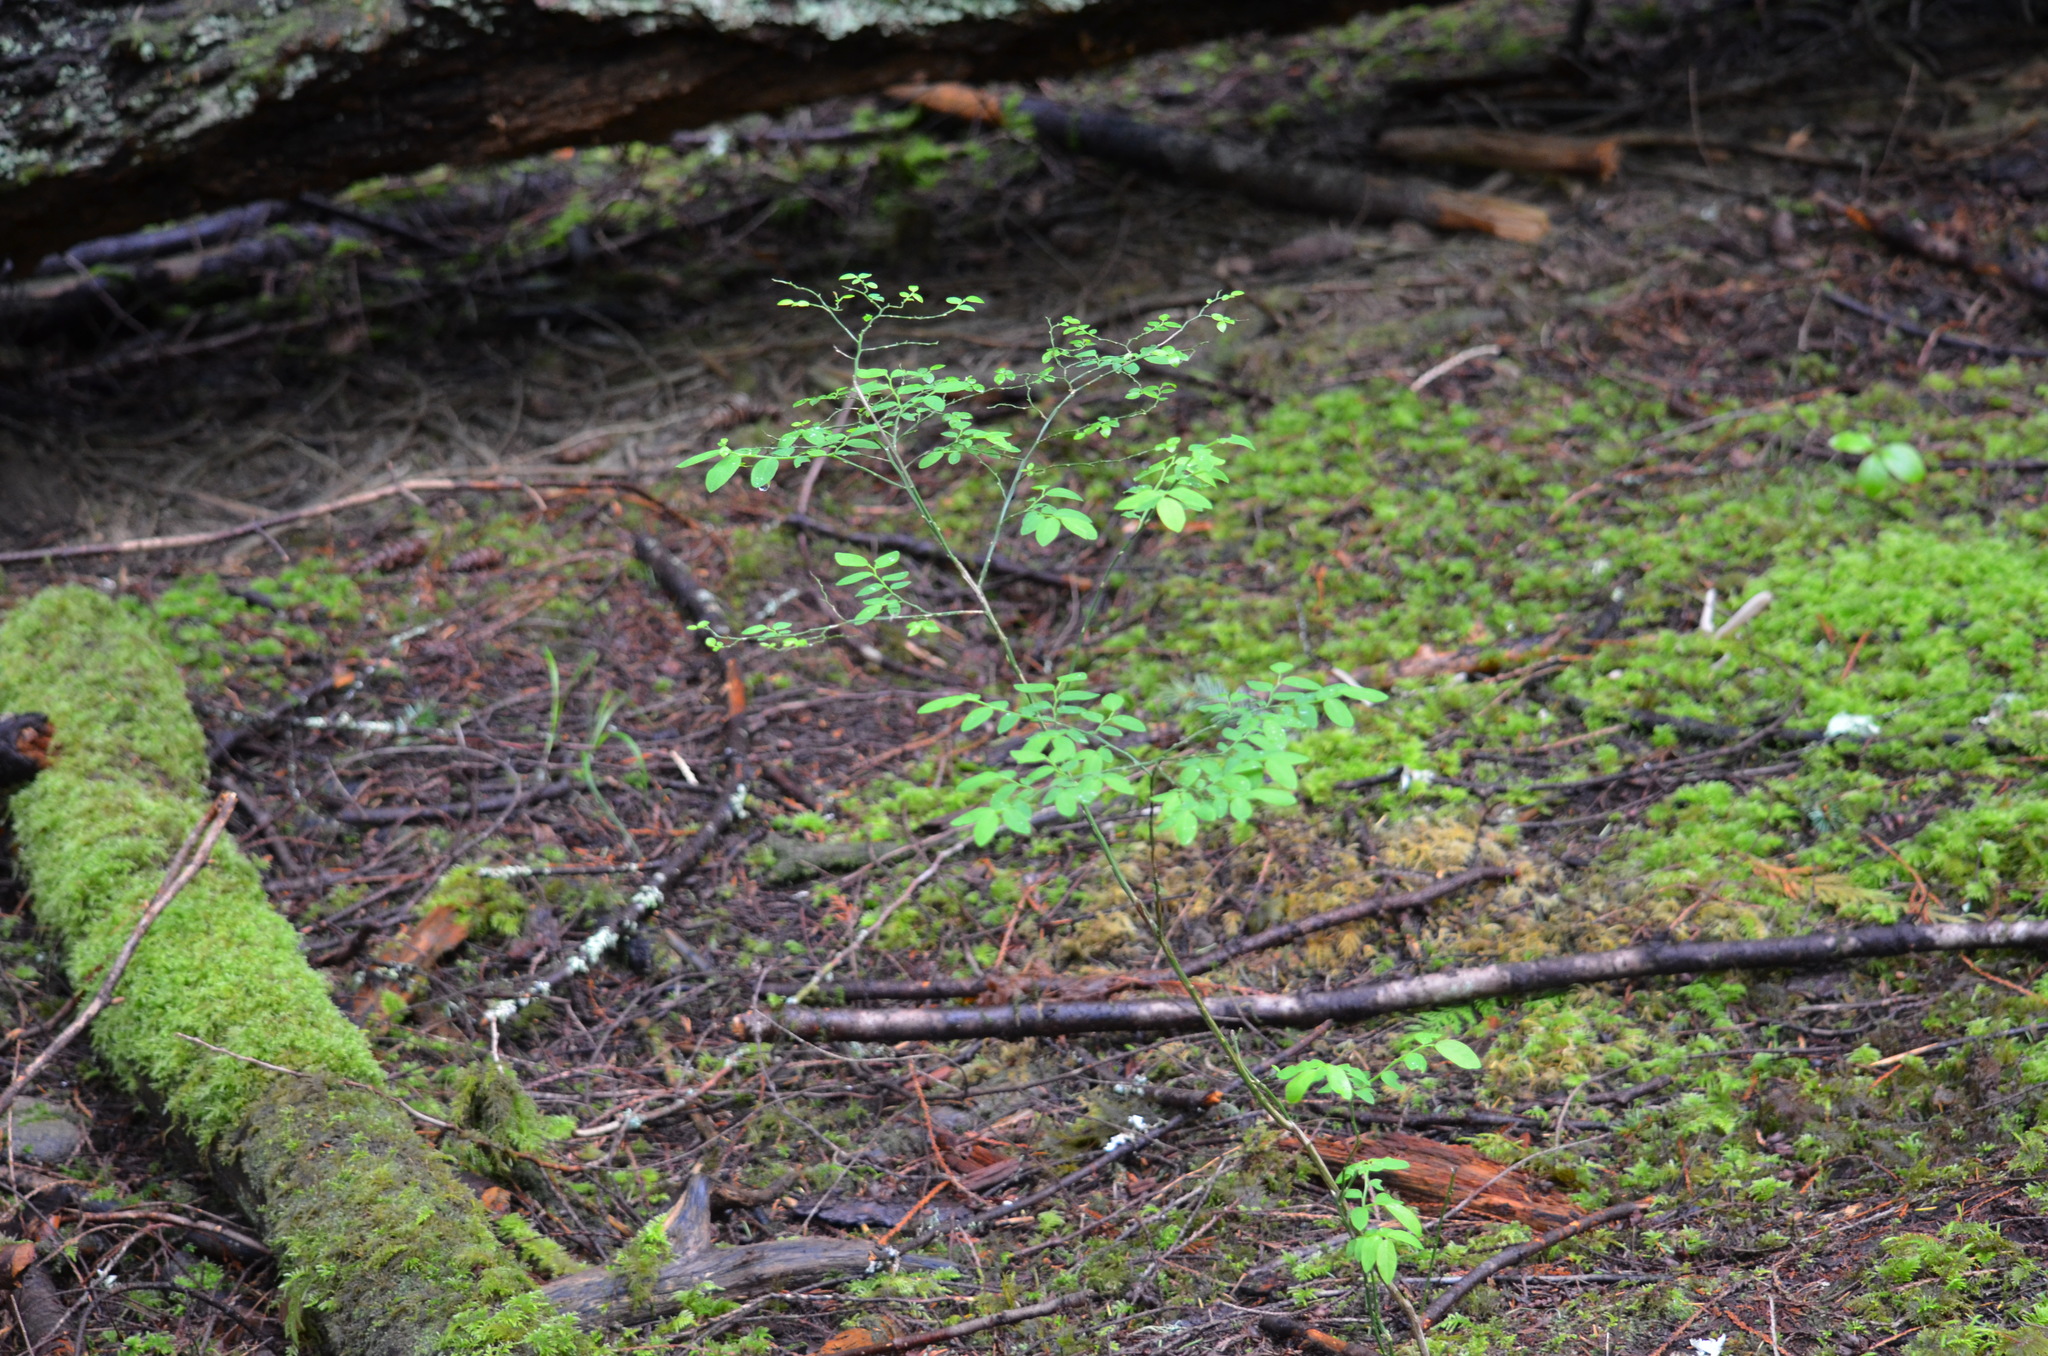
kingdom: Plantae
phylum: Tracheophyta
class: Magnoliopsida
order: Ericales
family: Ericaceae
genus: Vaccinium
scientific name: Vaccinium parvifolium
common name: Red-huckleberry
